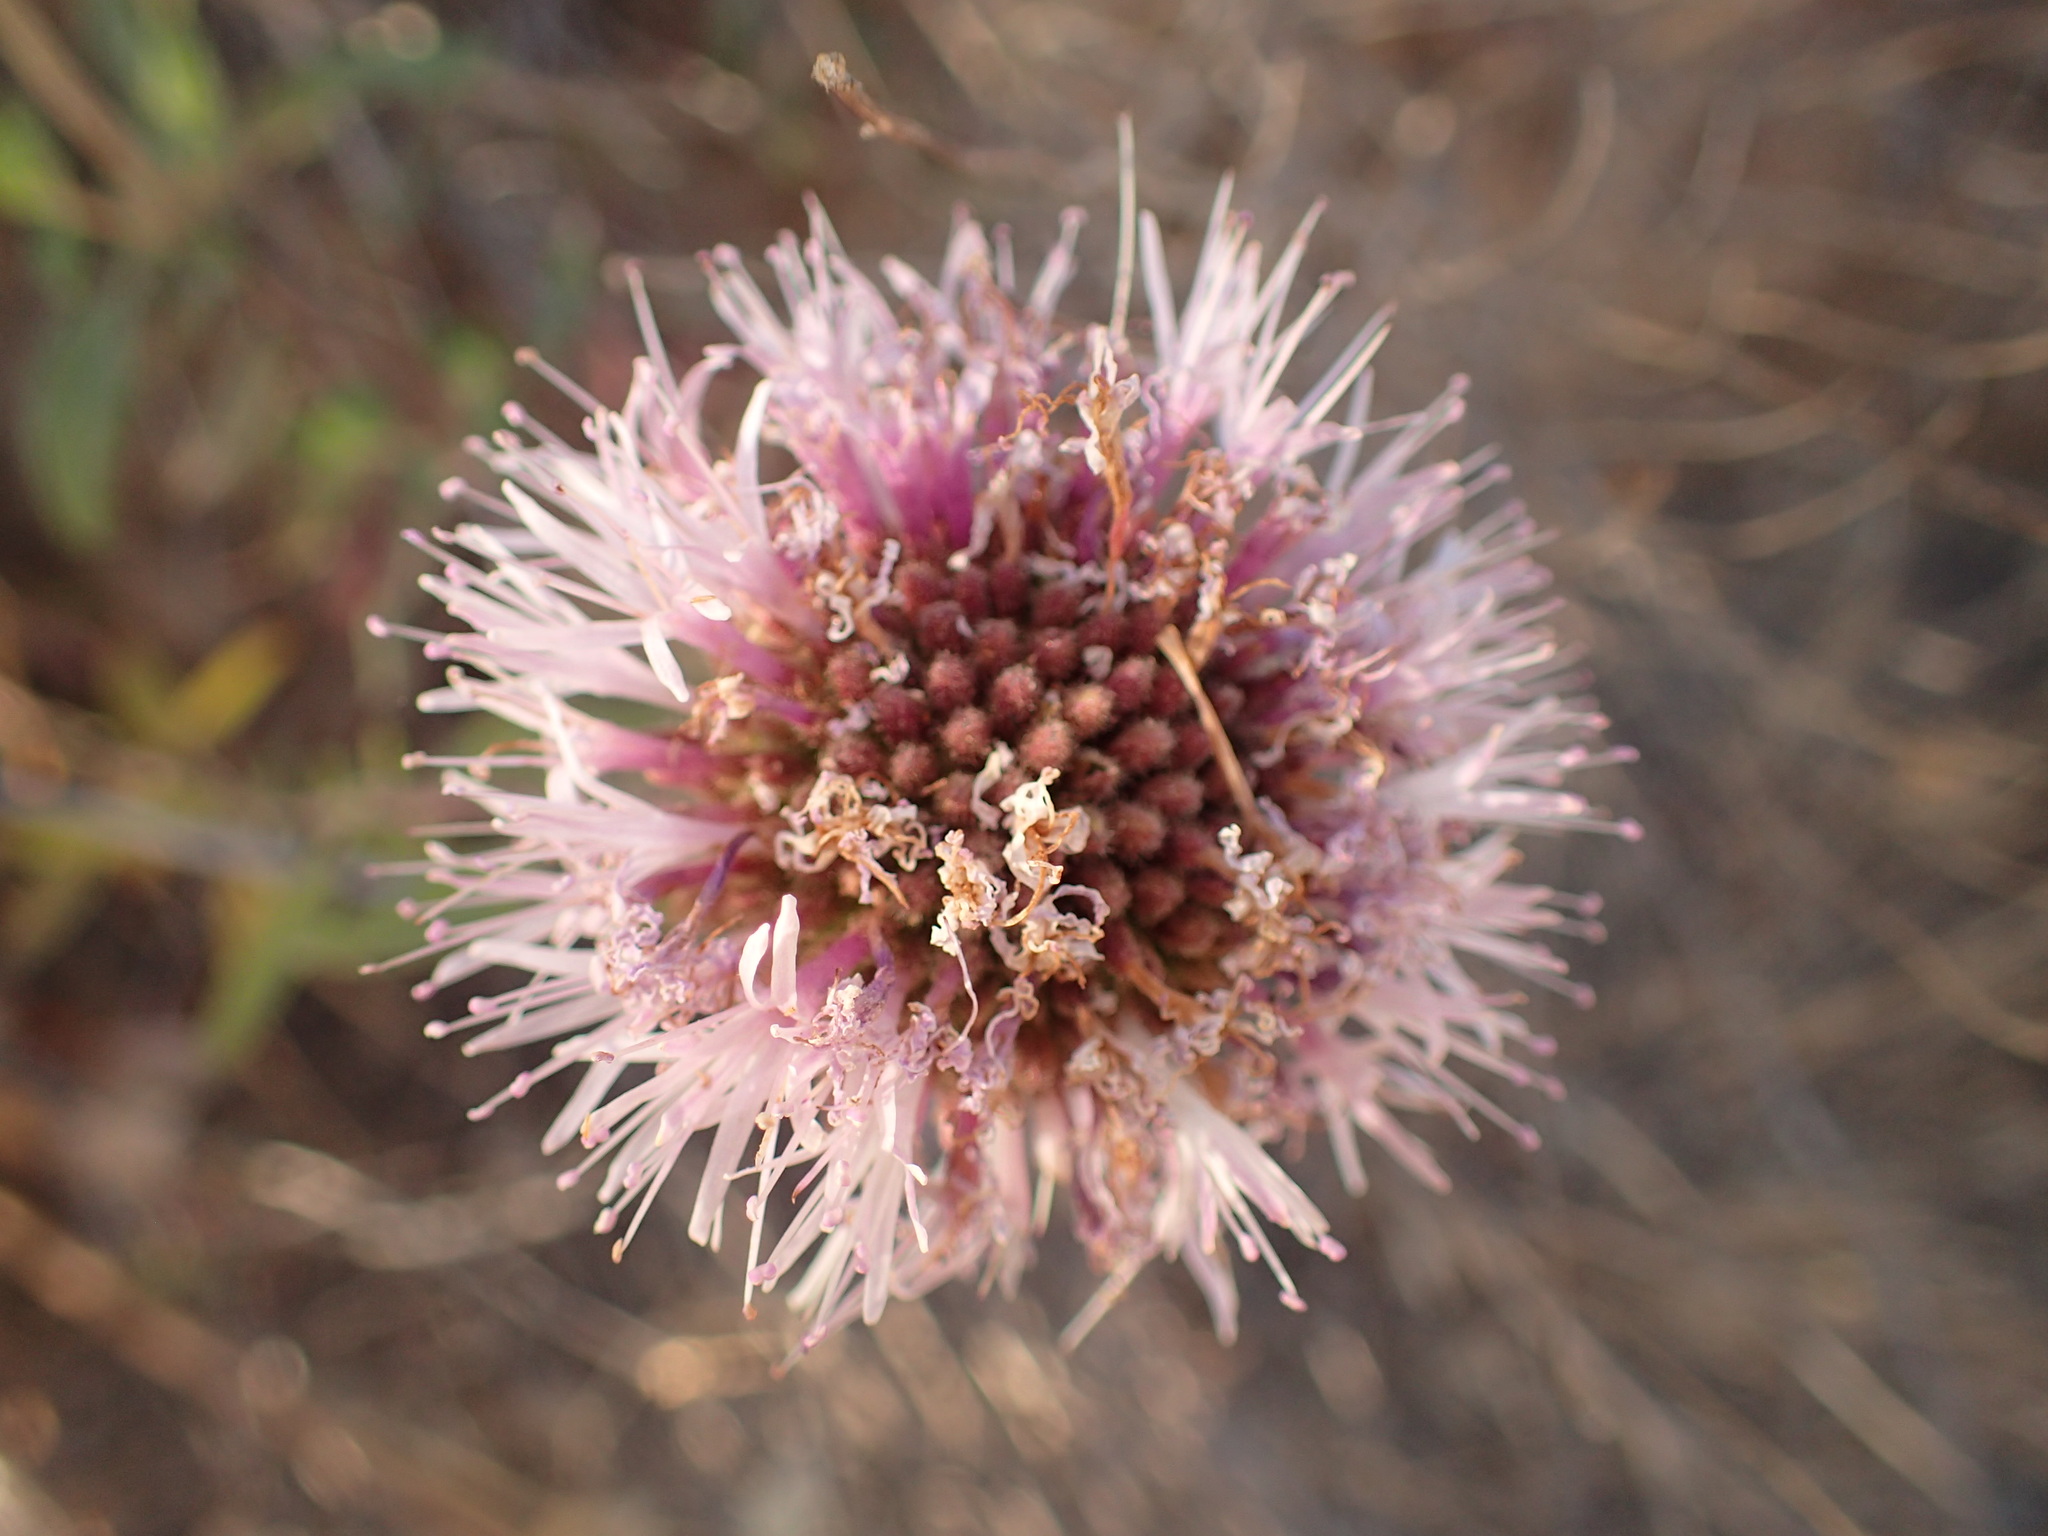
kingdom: Plantae
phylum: Tracheophyta
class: Magnoliopsida
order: Lamiales
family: Lamiaceae
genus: Monardella
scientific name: Monardella hypoleuca
